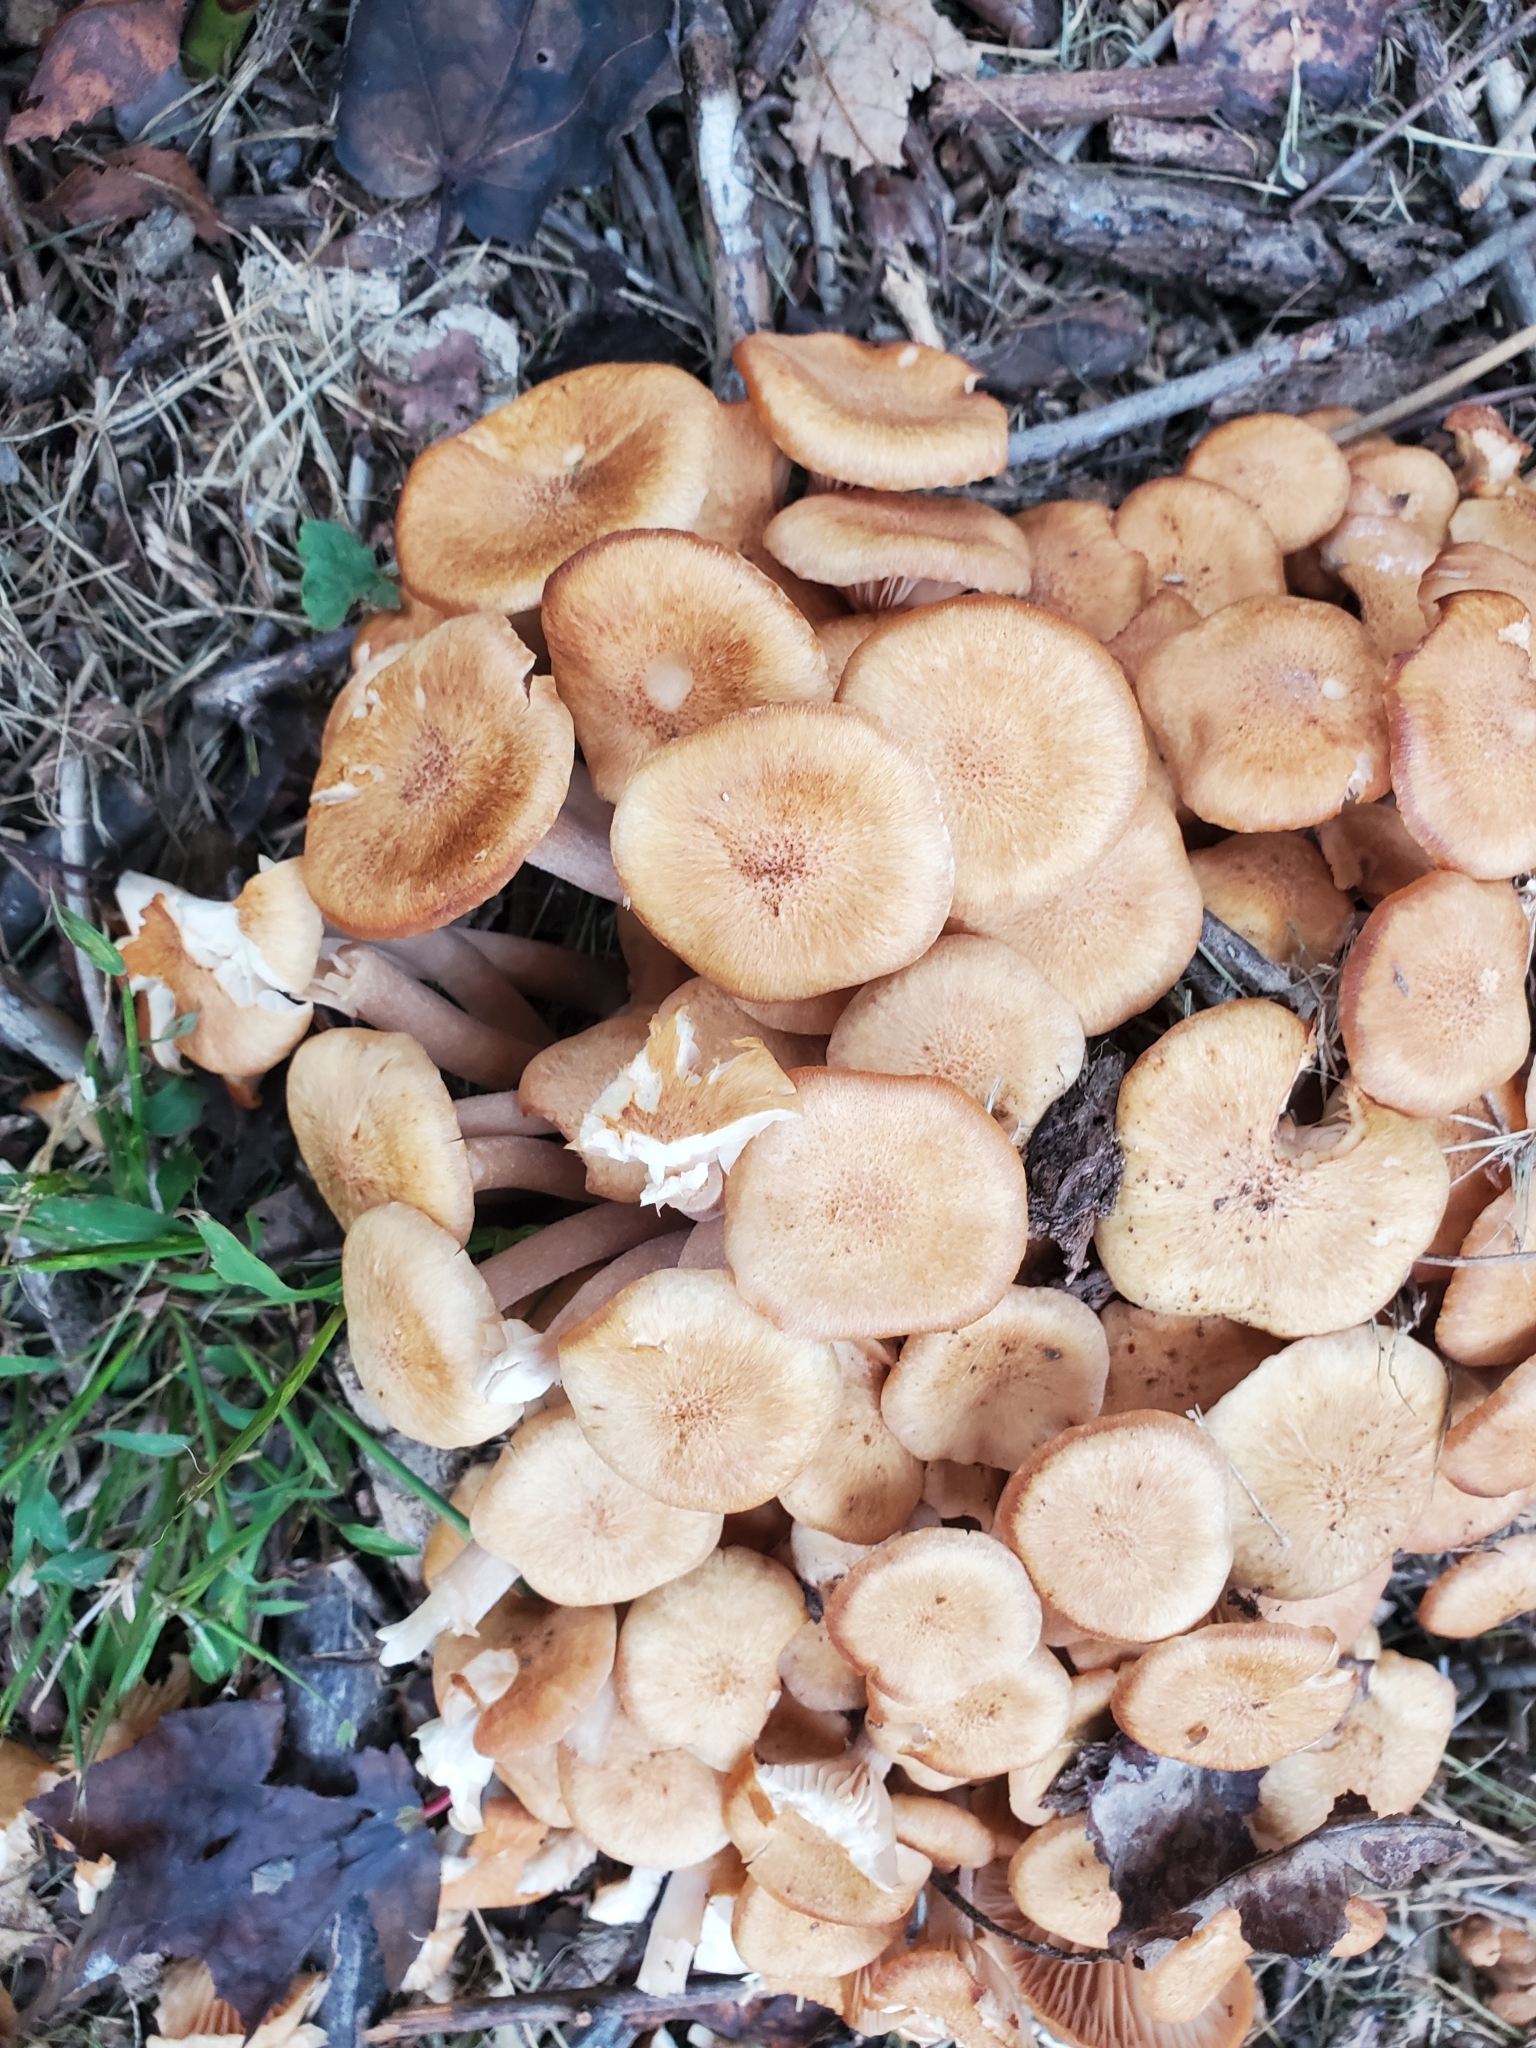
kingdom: Fungi
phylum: Basidiomycota
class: Agaricomycetes
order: Agaricales
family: Physalacriaceae
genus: Desarmillaria
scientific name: Desarmillaria caespitosa
